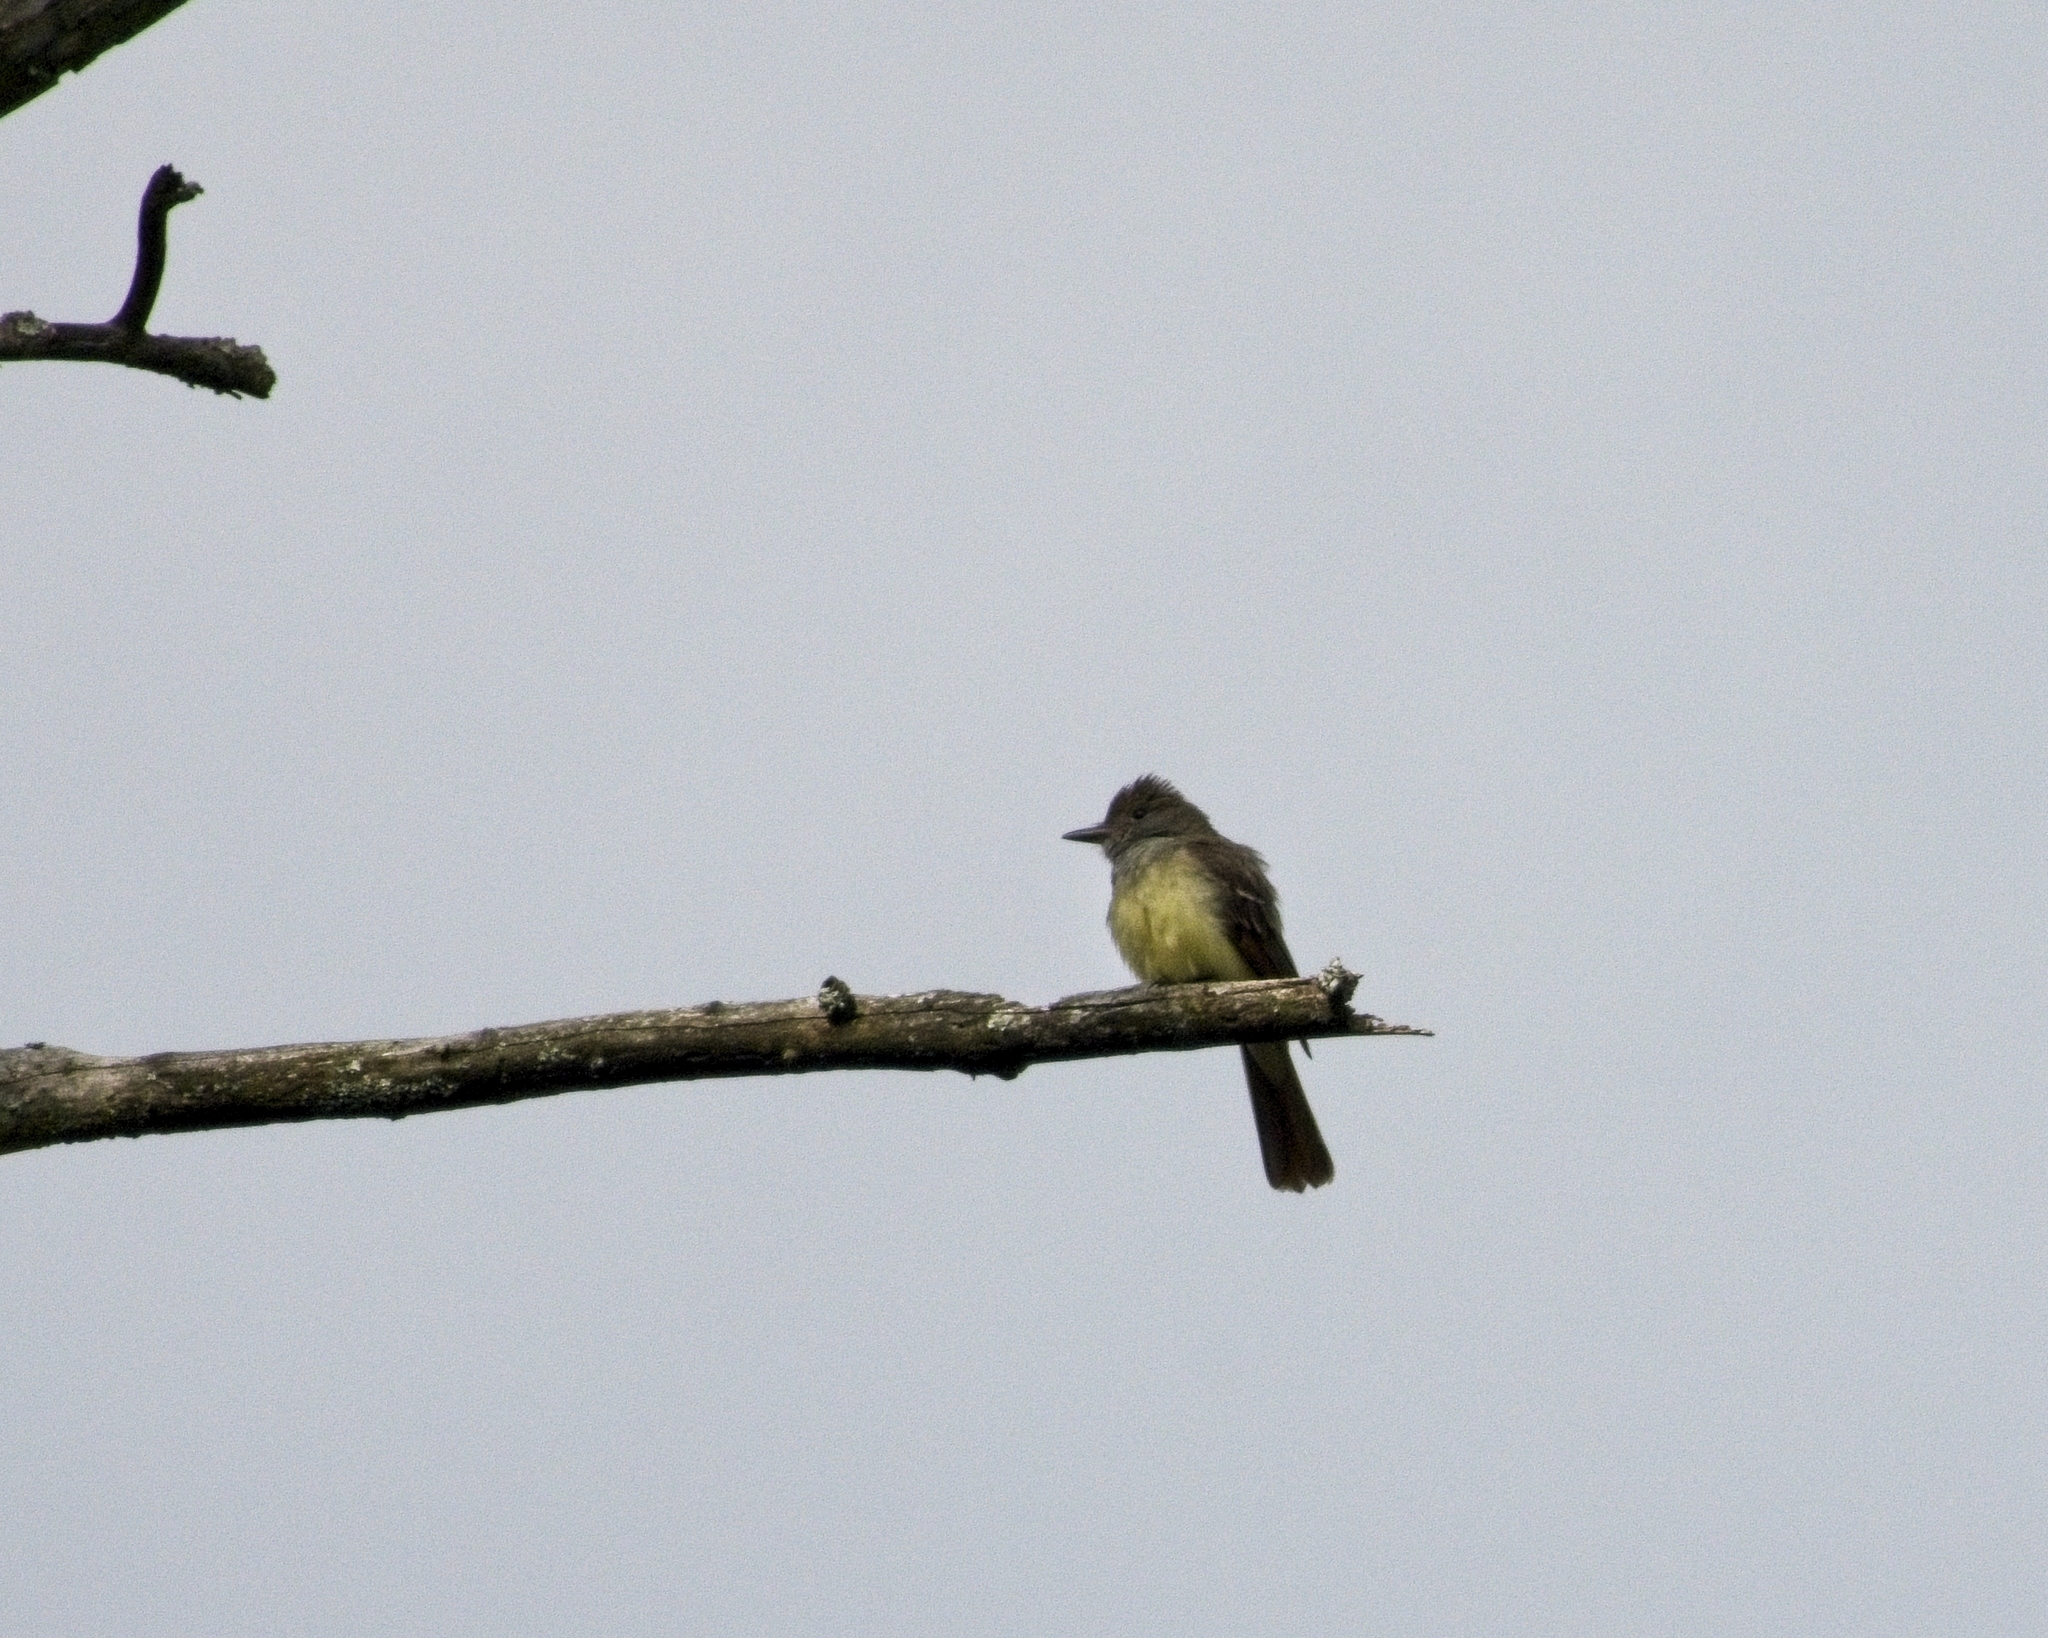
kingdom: Animalia
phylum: Chordata
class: Aves
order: Passeriformes
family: Tyrannidae
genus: Myiarchus
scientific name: Myiarchus crinitus
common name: Great crested flycatcher
